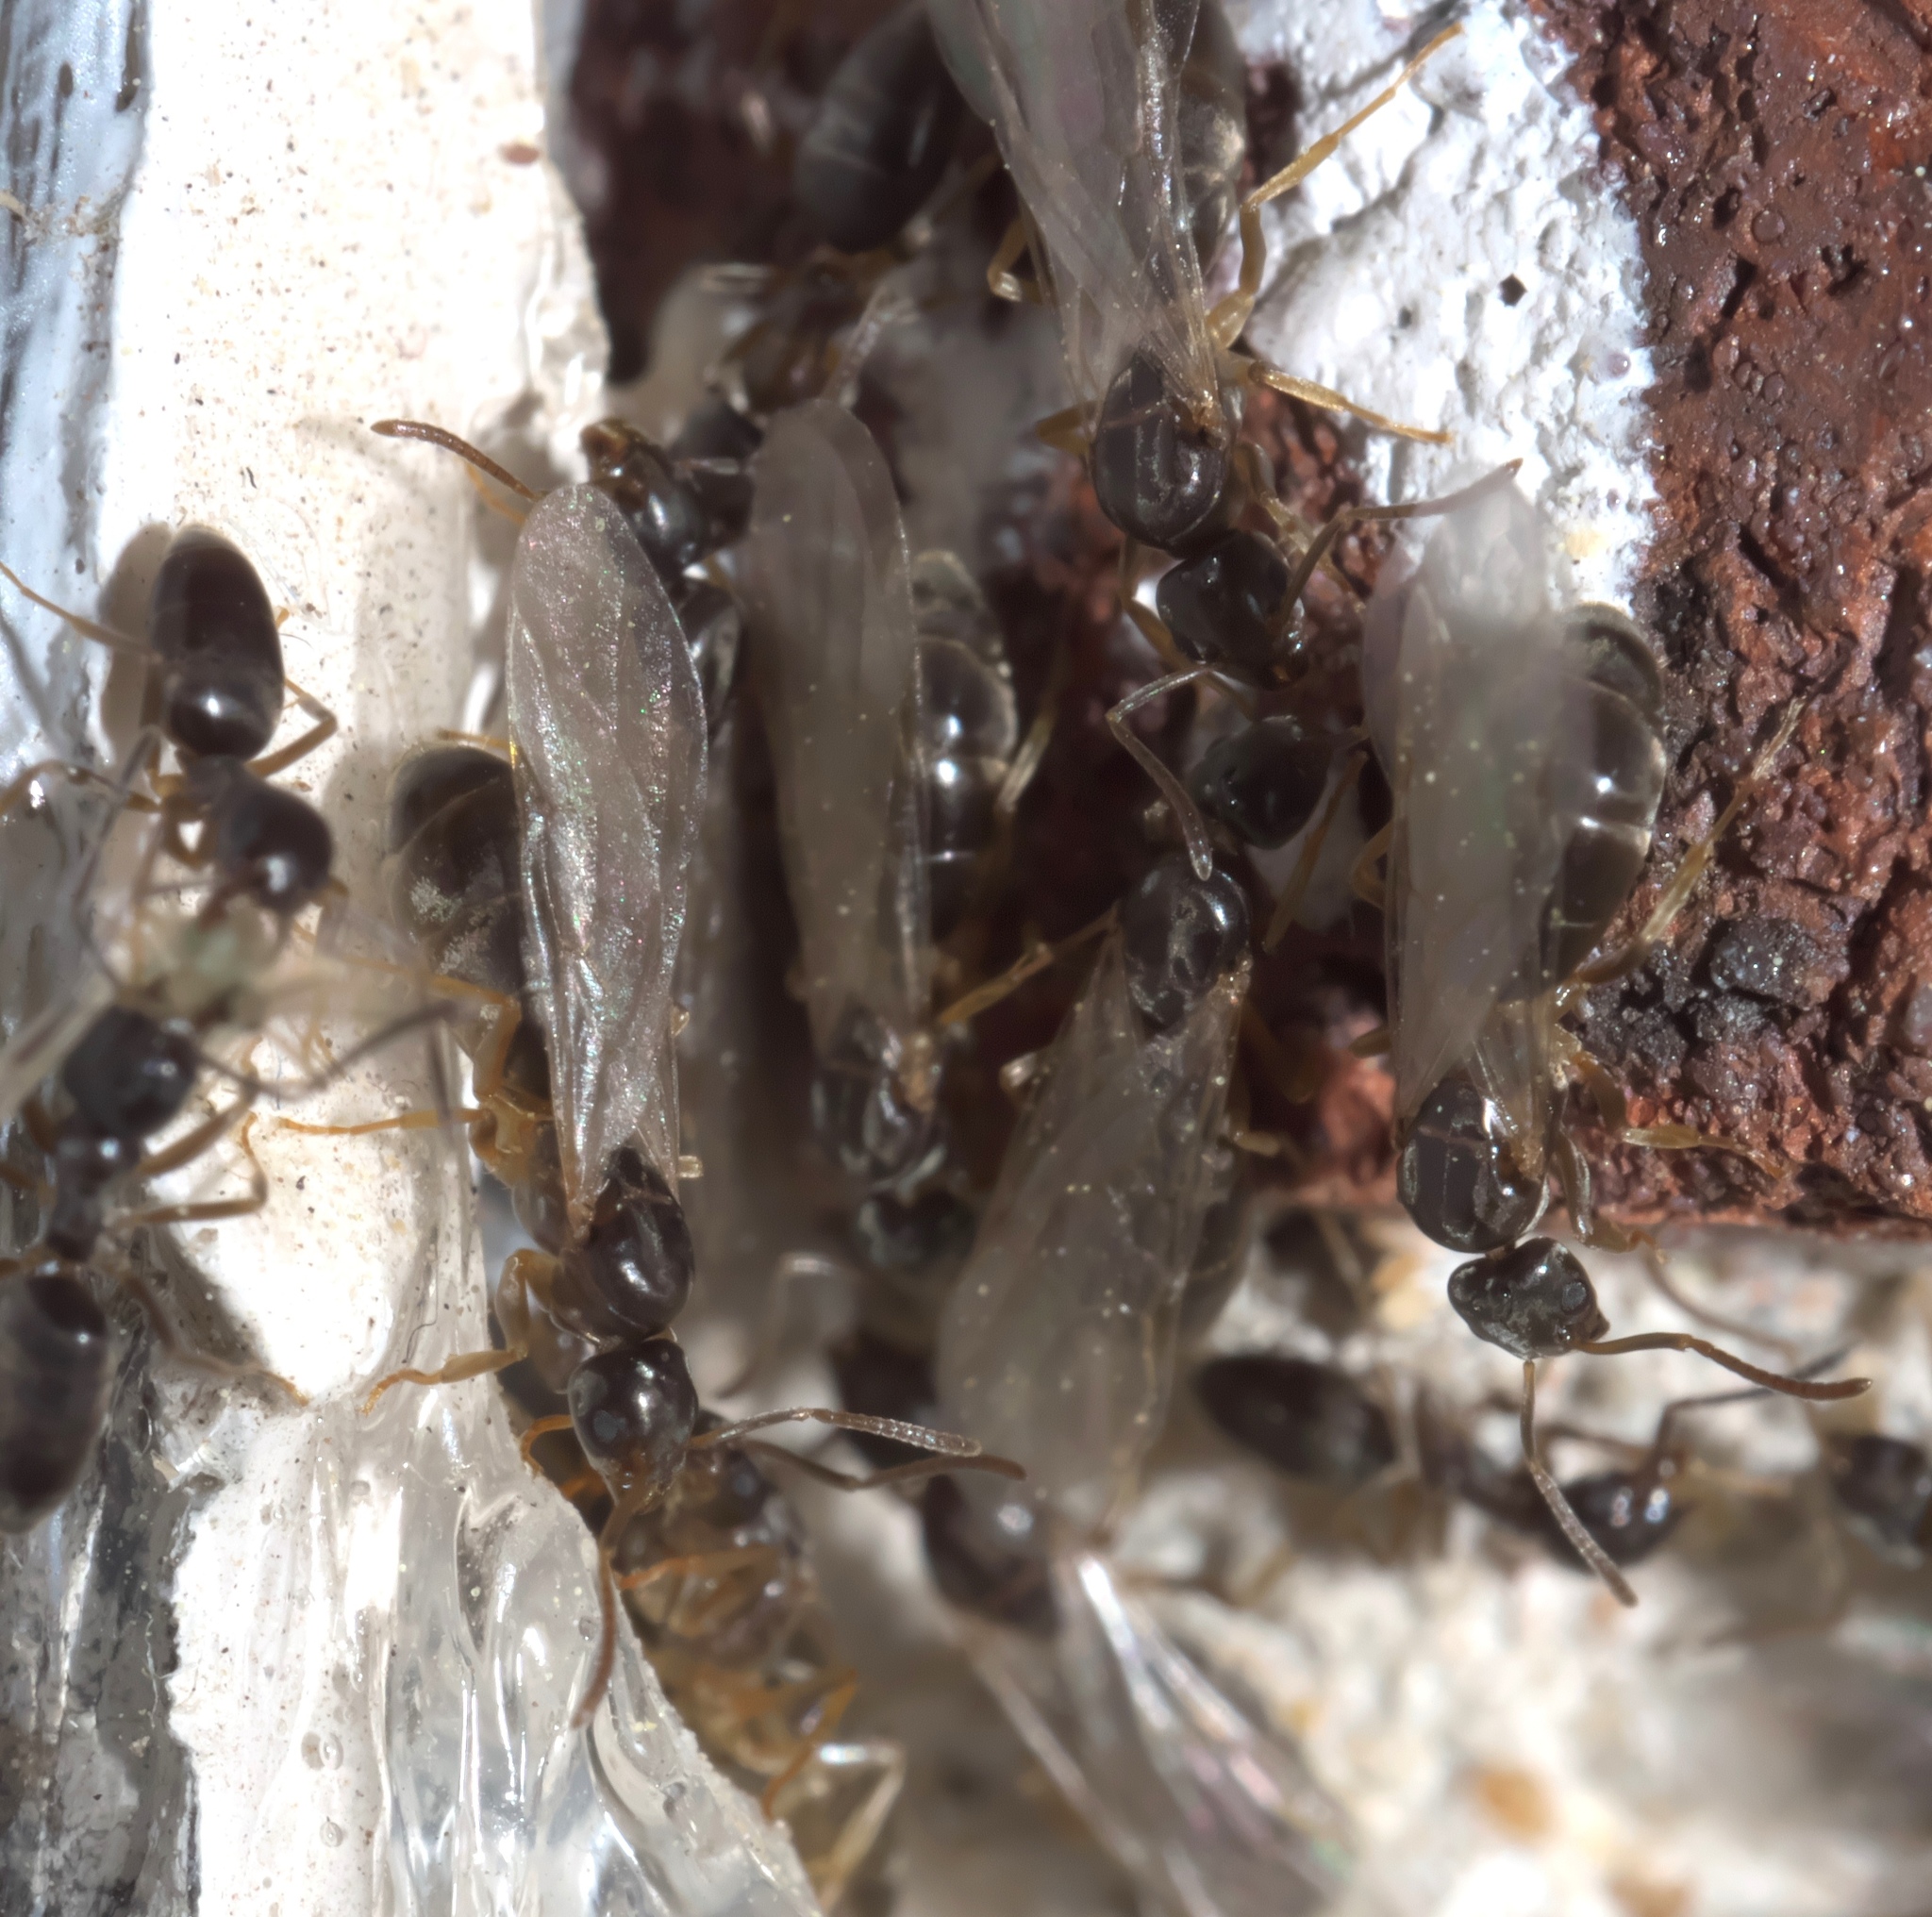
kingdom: Animalia
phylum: Arthropoda
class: Insecta
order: Hymenoptera
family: Formicidae
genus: Tapinoma
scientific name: Tapinoma sessile
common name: Odorous house ant
